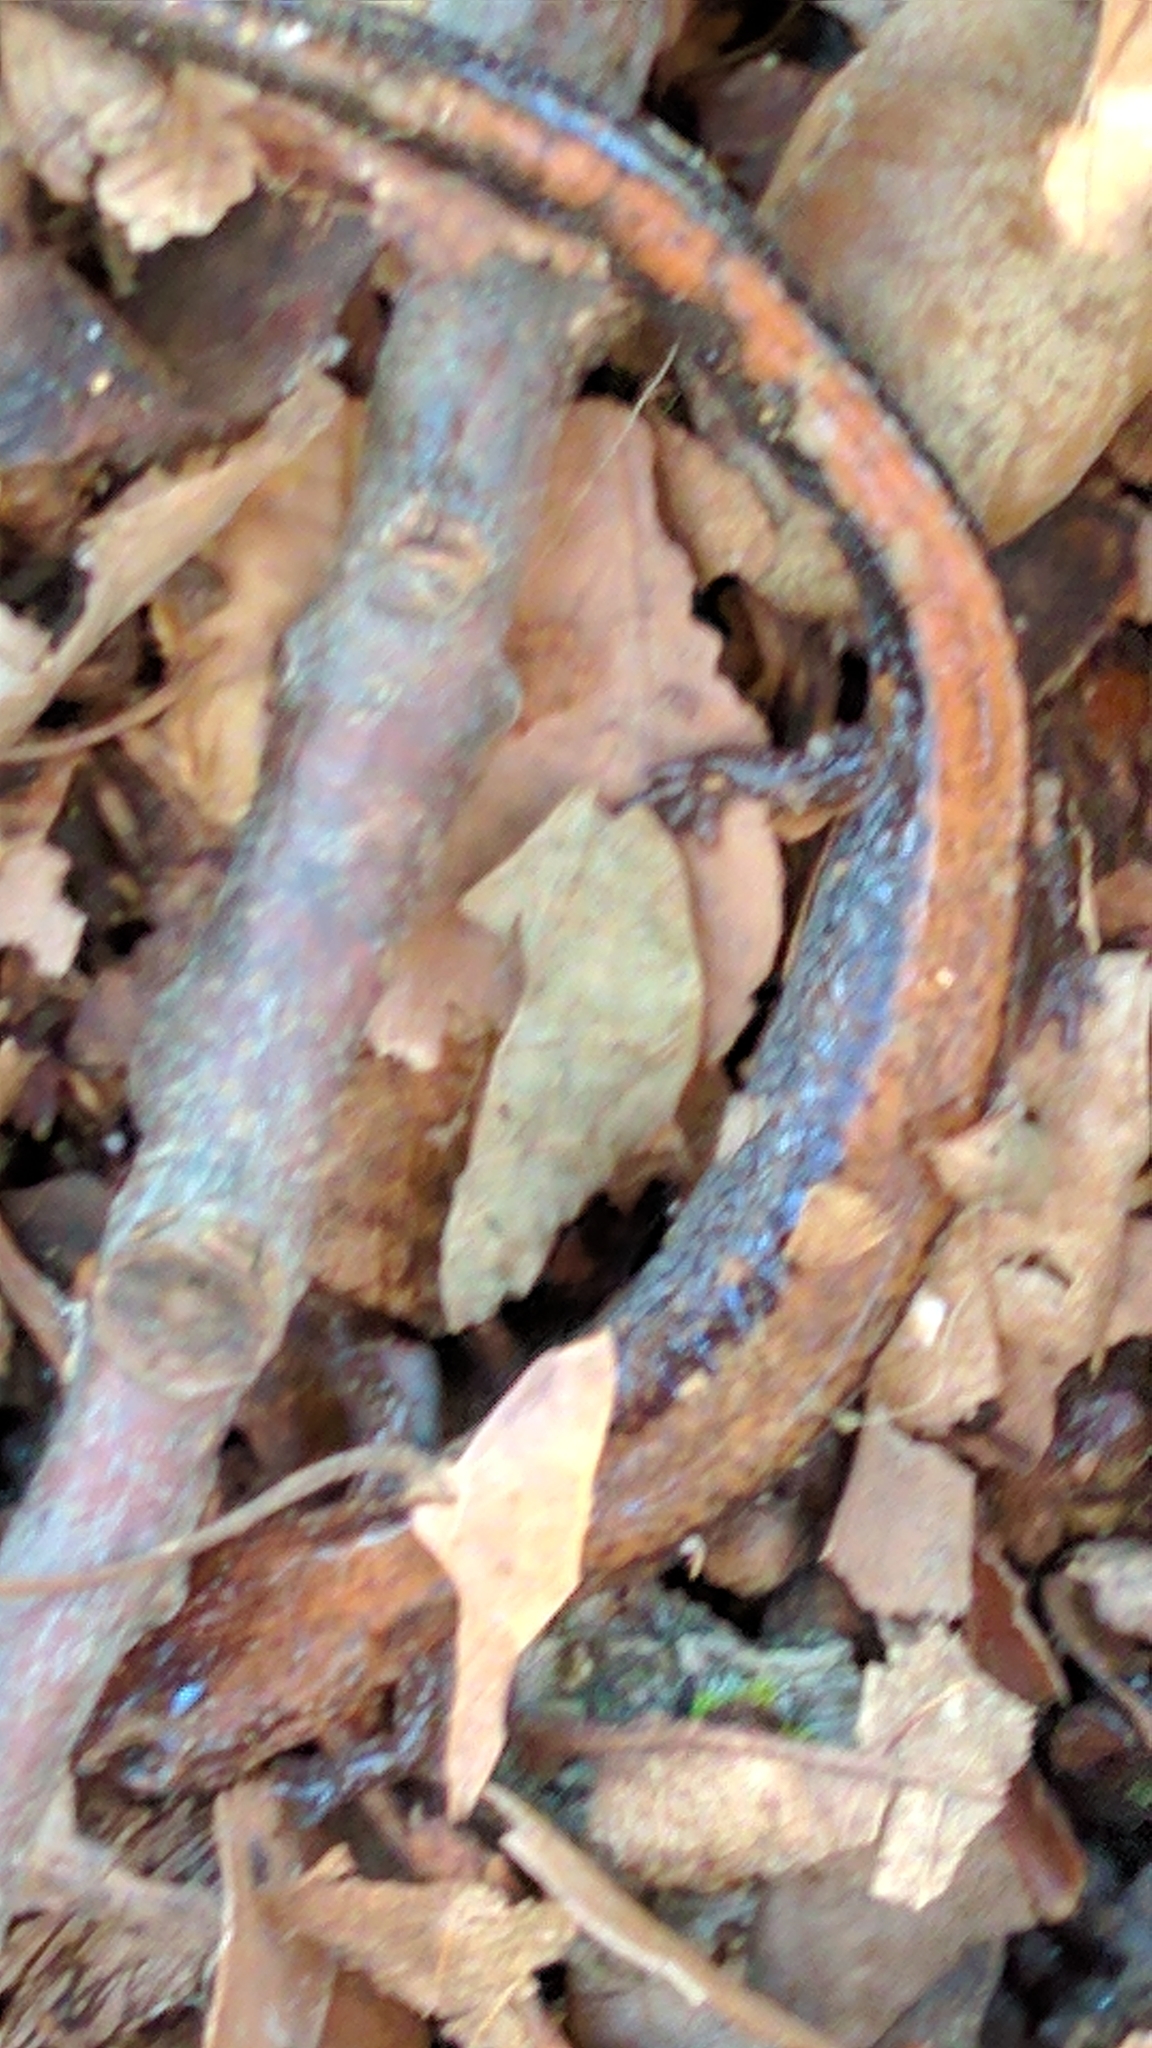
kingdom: Animalia
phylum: Chordata
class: Amphibia
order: Caudata
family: Plethodontidae
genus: Plethodon
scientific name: Plethodon cinereus
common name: Redback salamander
